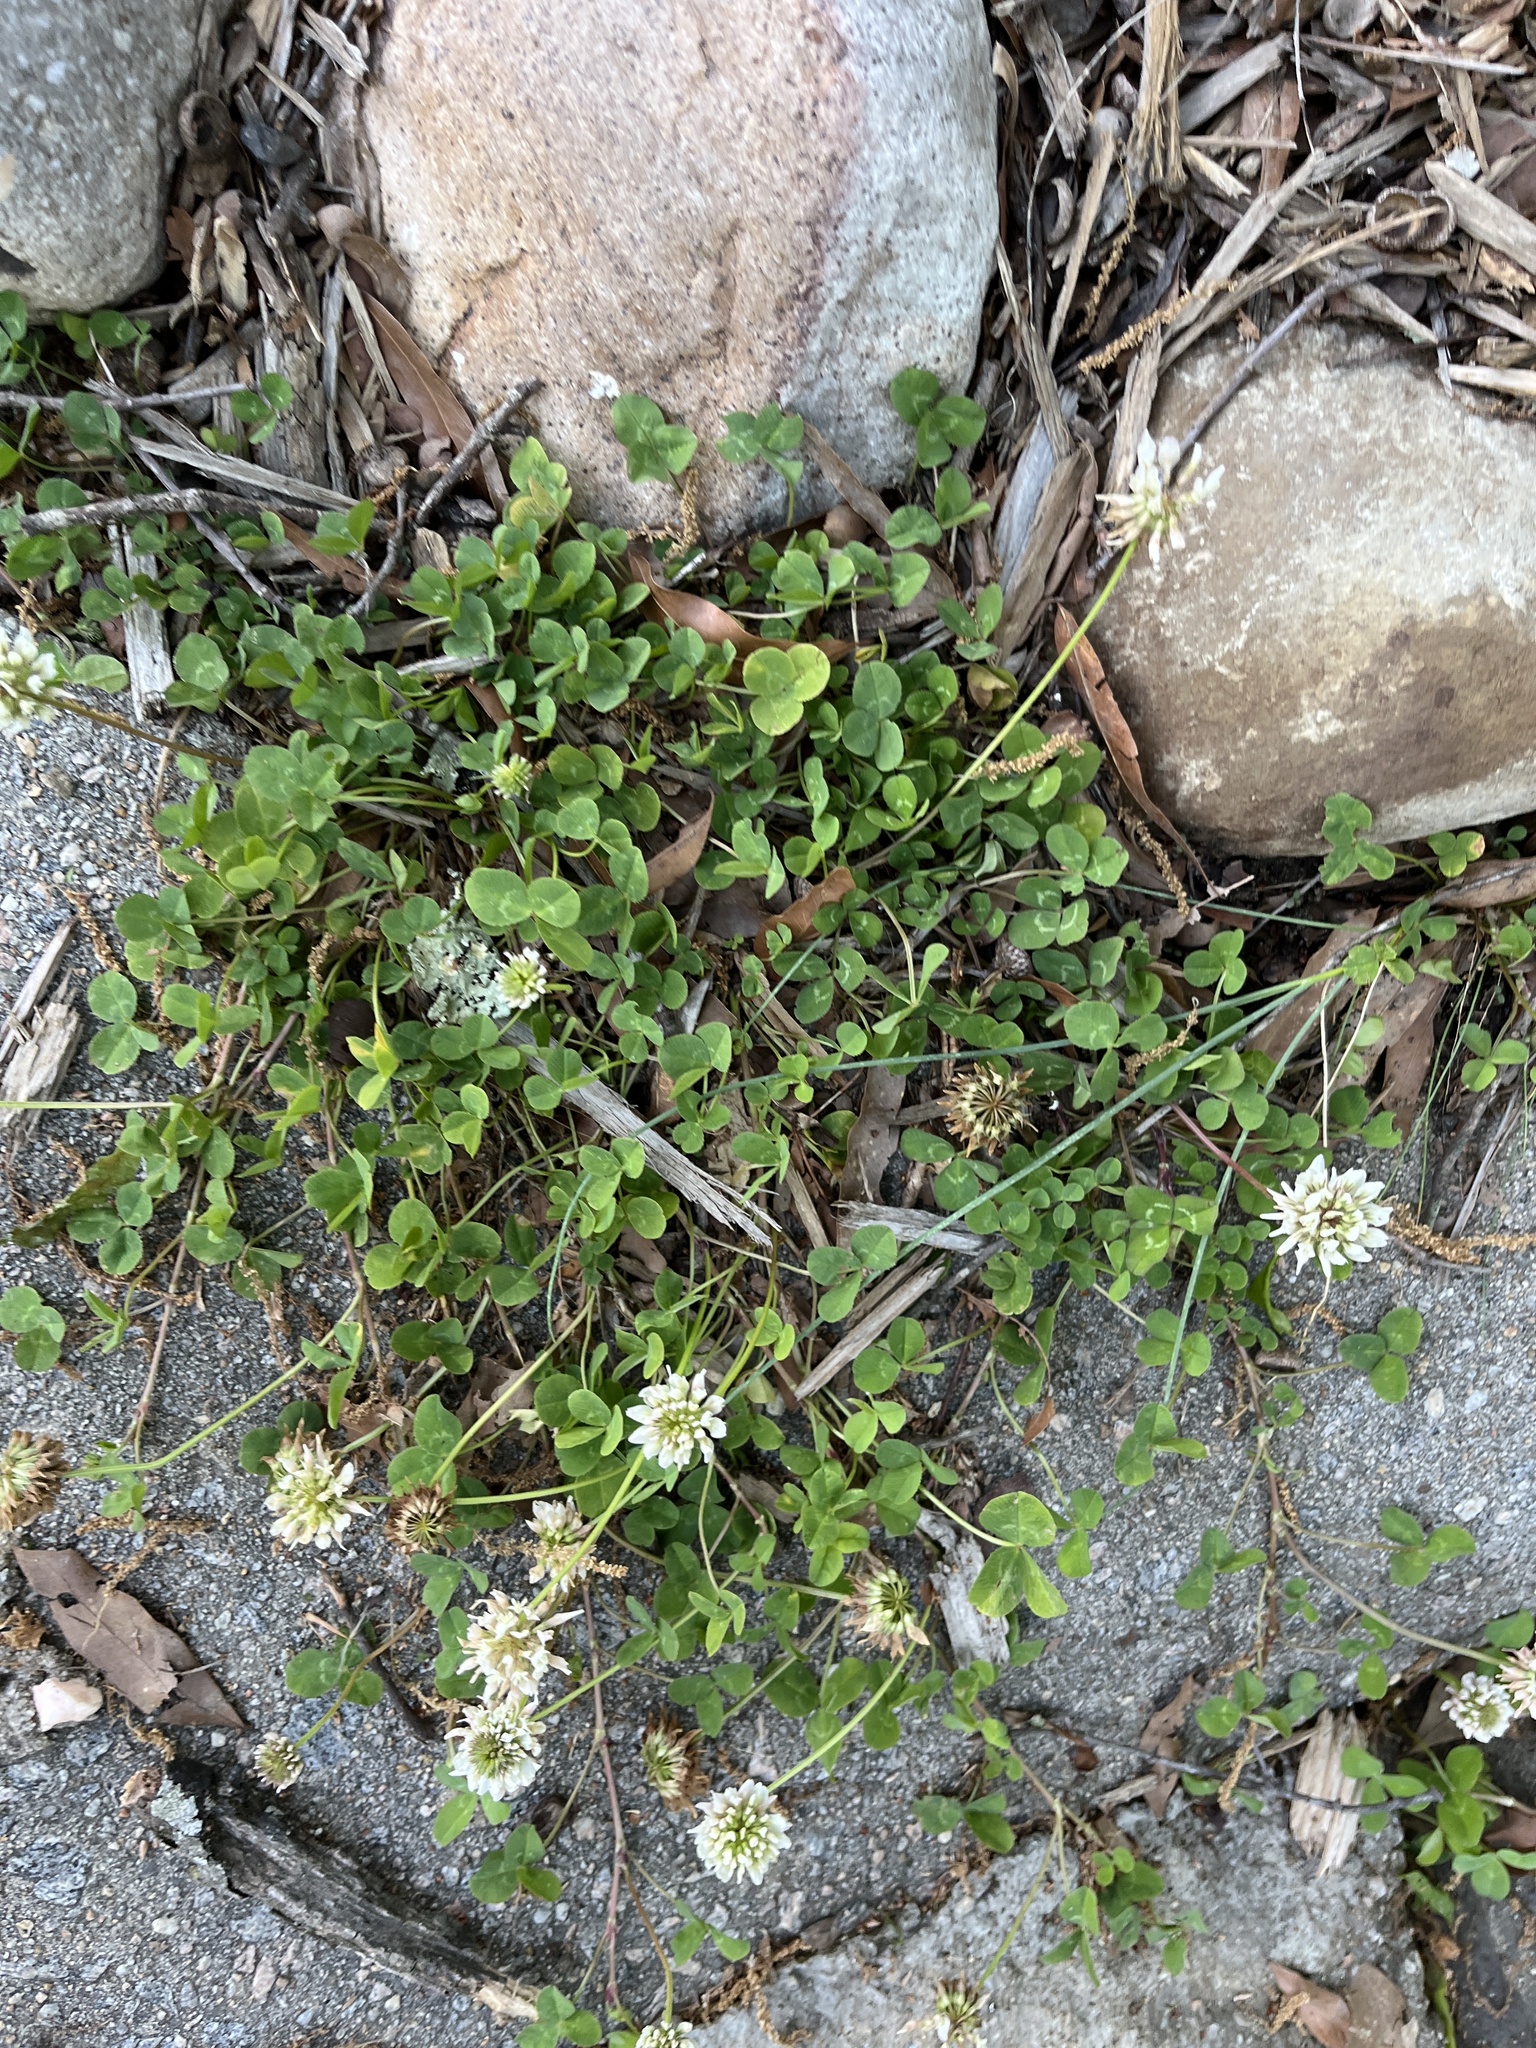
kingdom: Plantae
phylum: Tracheophyta
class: Magnoliopsida
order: Fabales
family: Fabaceae
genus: Trifolium
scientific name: Trifolium repens
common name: White clover
